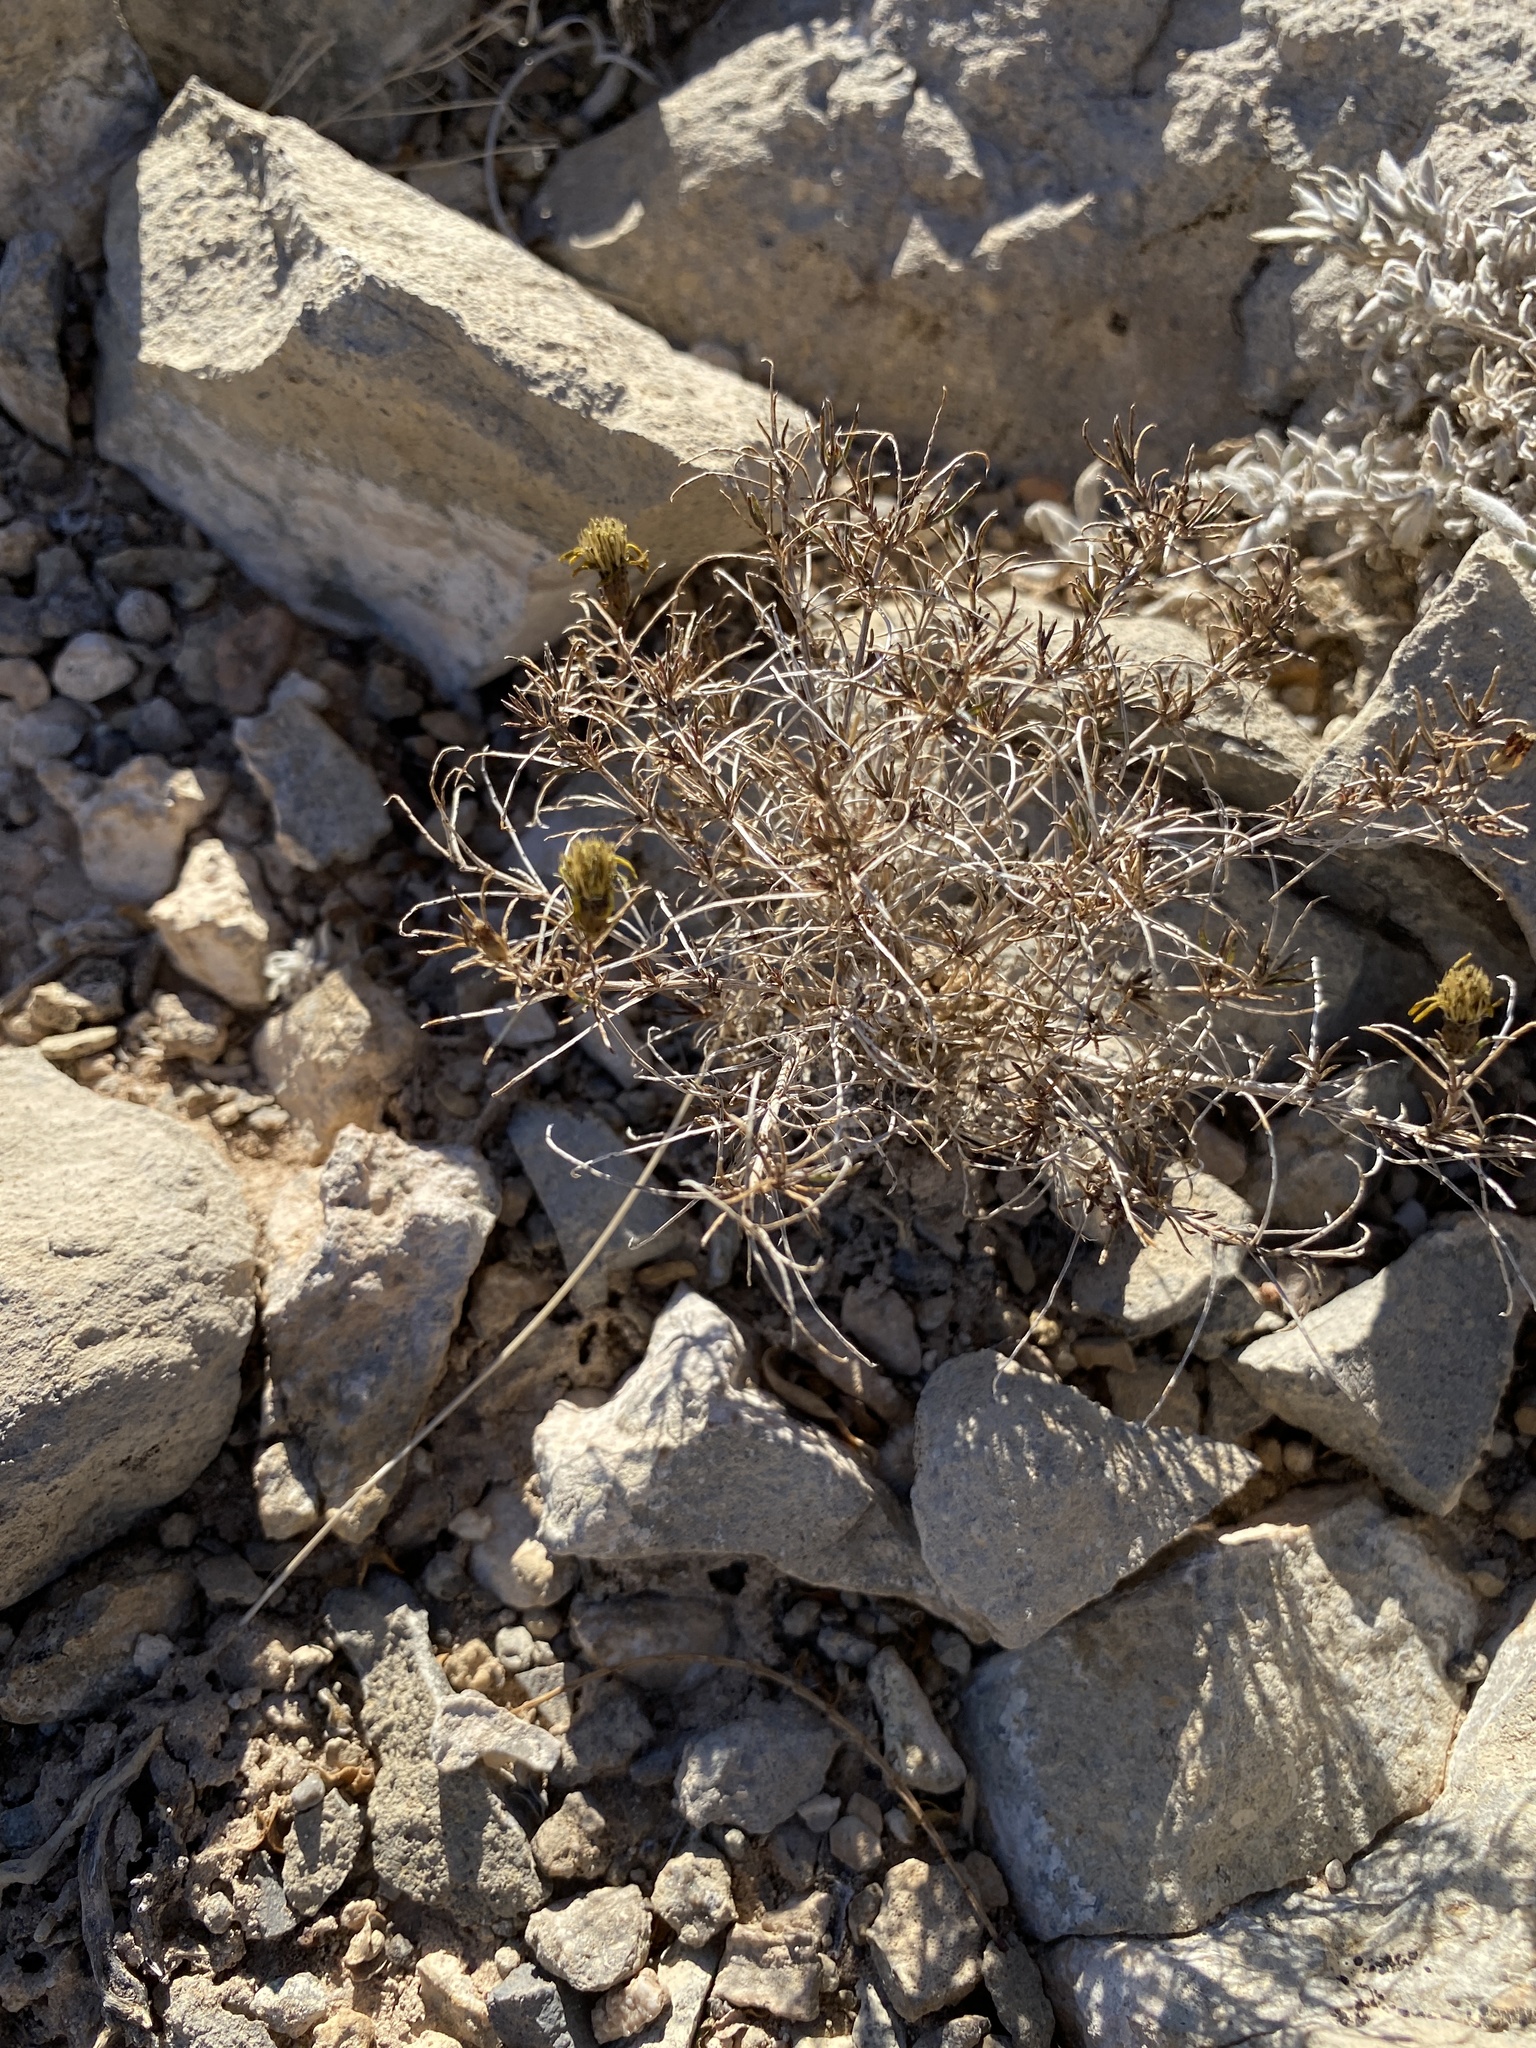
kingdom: Plantae
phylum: Tracheophyta
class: Magnoliopsida
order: Caryophyllales
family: Cactaceae
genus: Echinocactus
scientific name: Echinocactus horizonthalonius
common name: Devilshead
